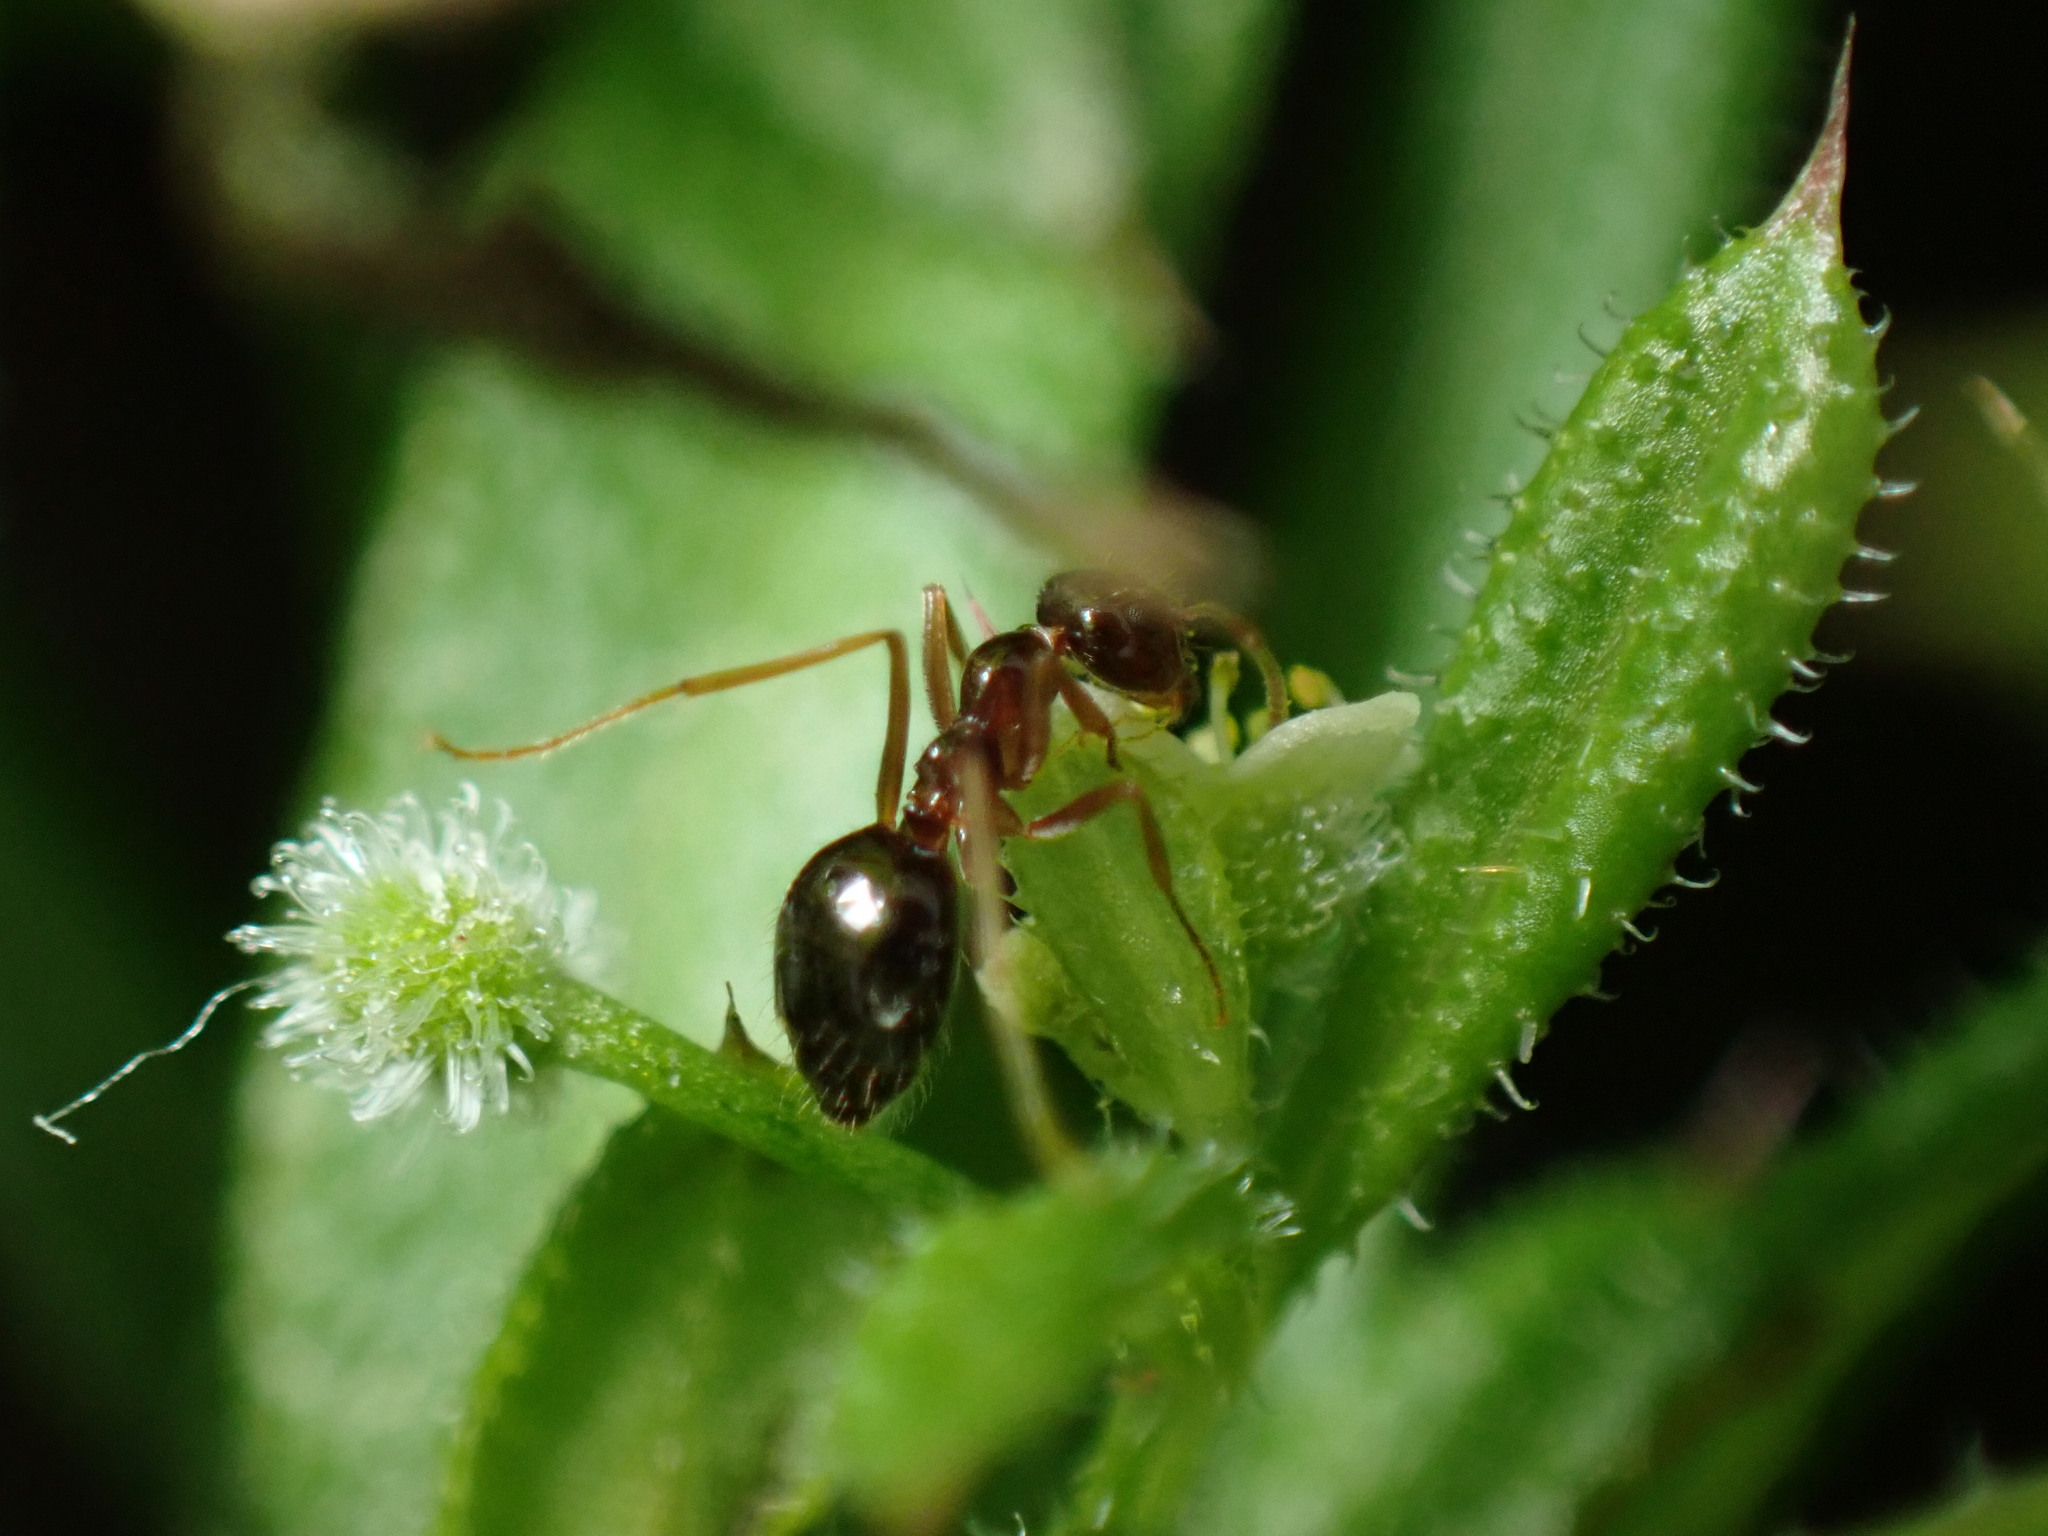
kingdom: Animalia
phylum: Arthropoda
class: Insecta
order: Hymenoptera
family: Formicidae
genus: Prenolepis
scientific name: Prenolepis imparis
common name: Small honey ant
